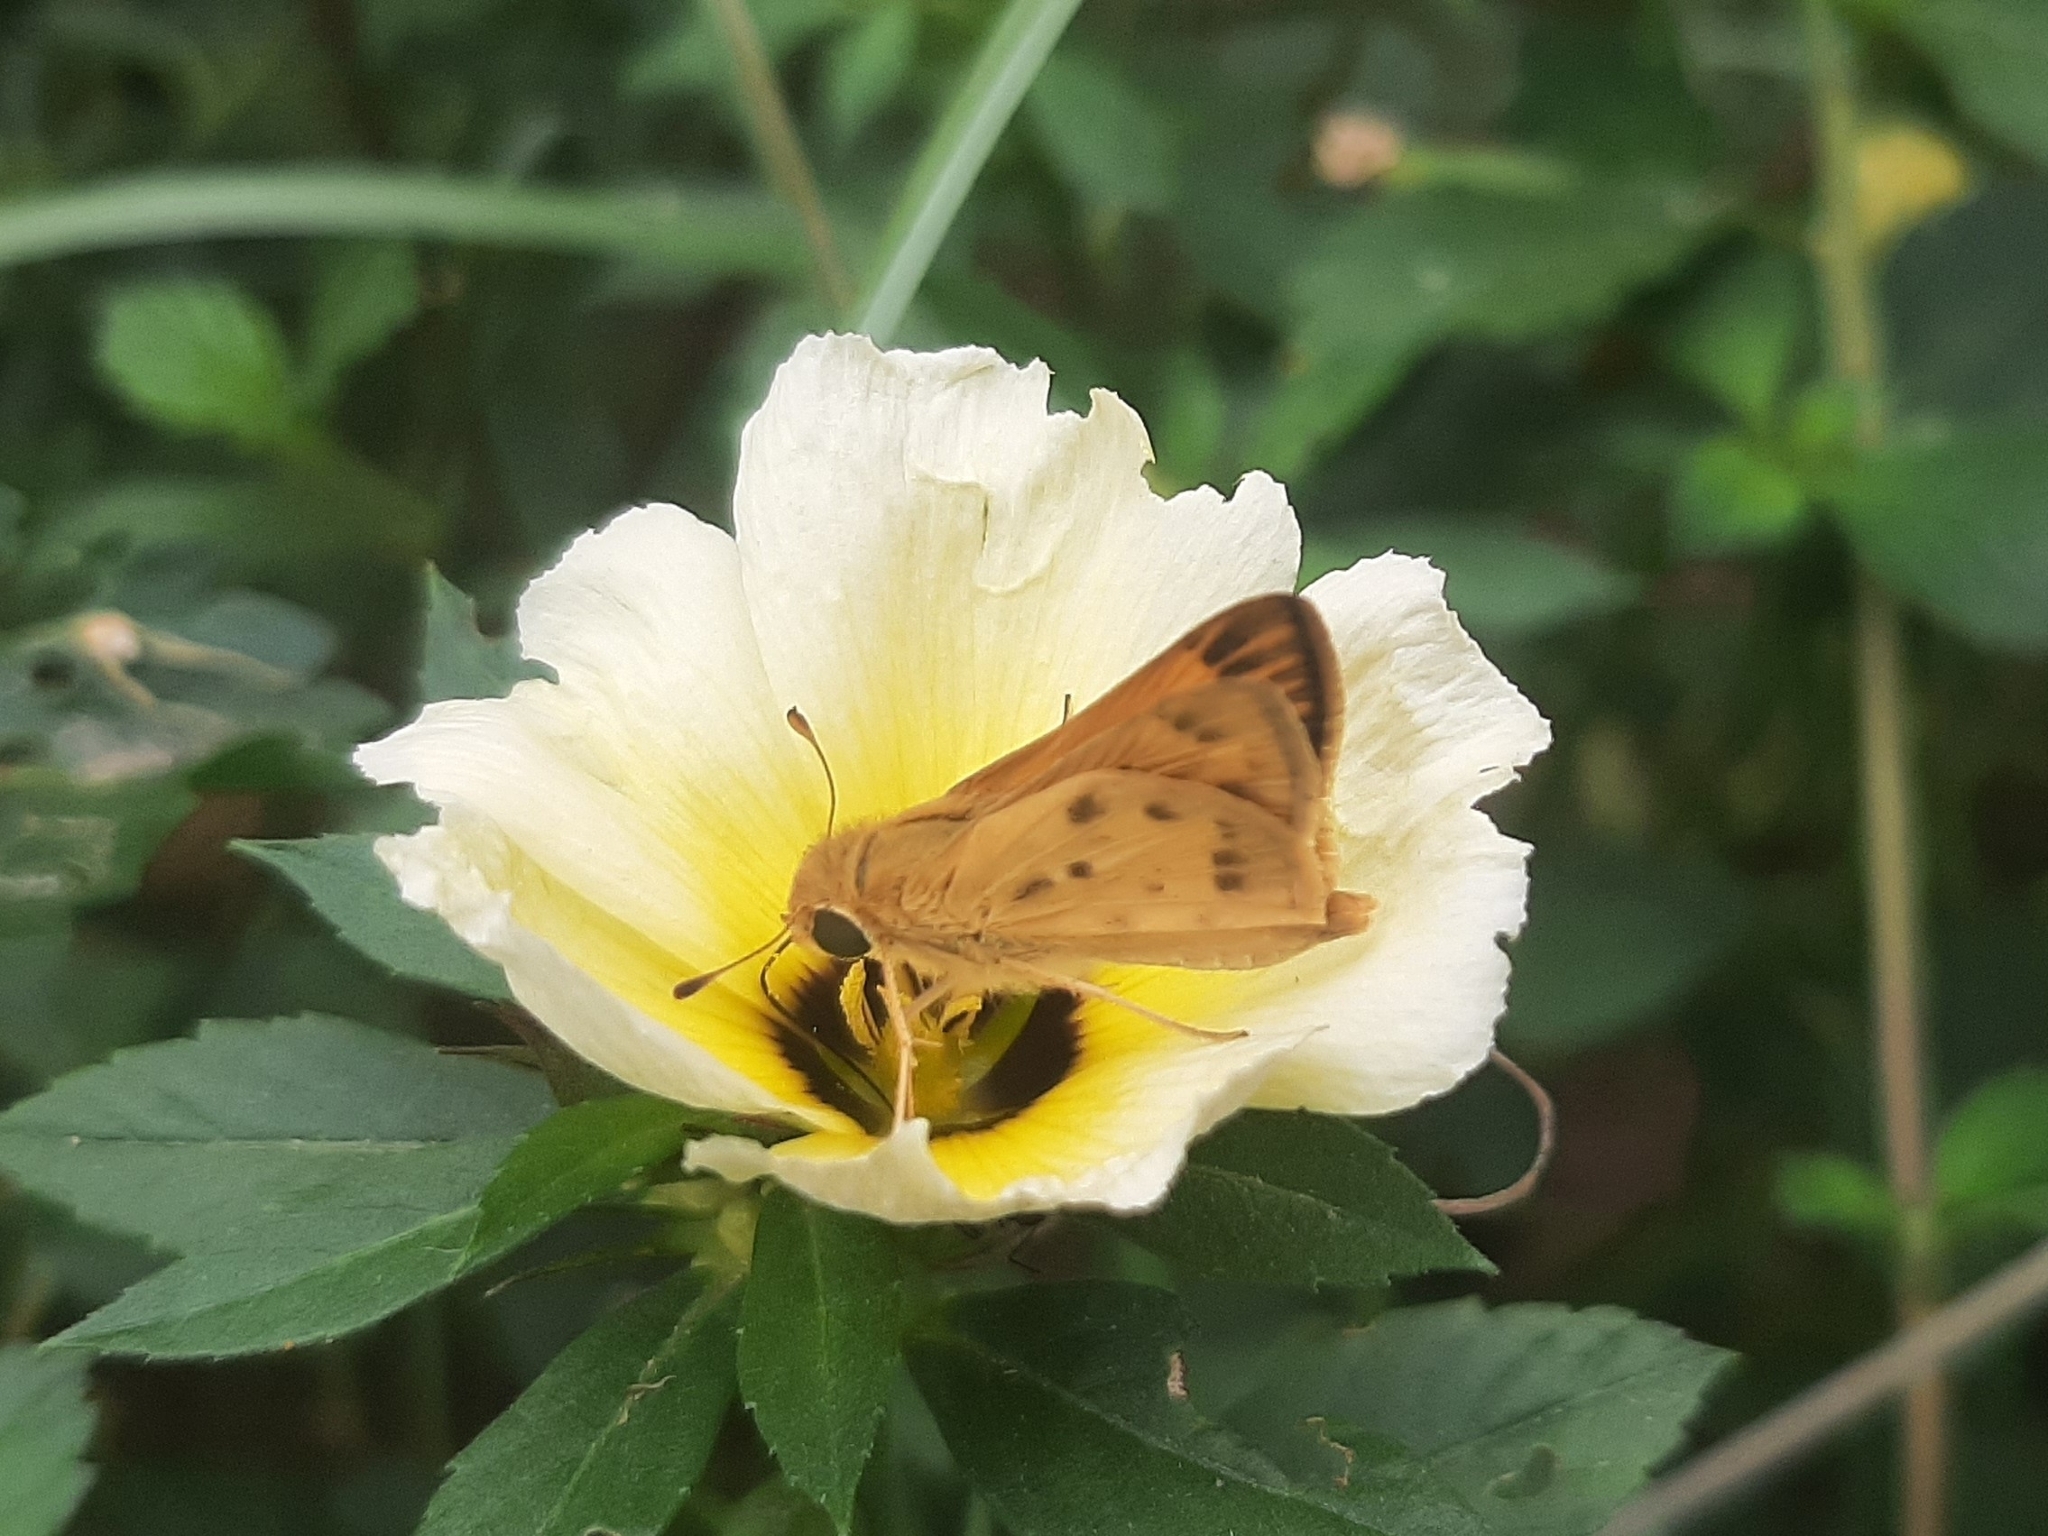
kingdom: Animalia
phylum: Arthropoda
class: Insecta
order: Lepidoptera
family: Hesperiidae
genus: Hylephila
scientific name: Hylephila phyleus
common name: Fiery skipper
